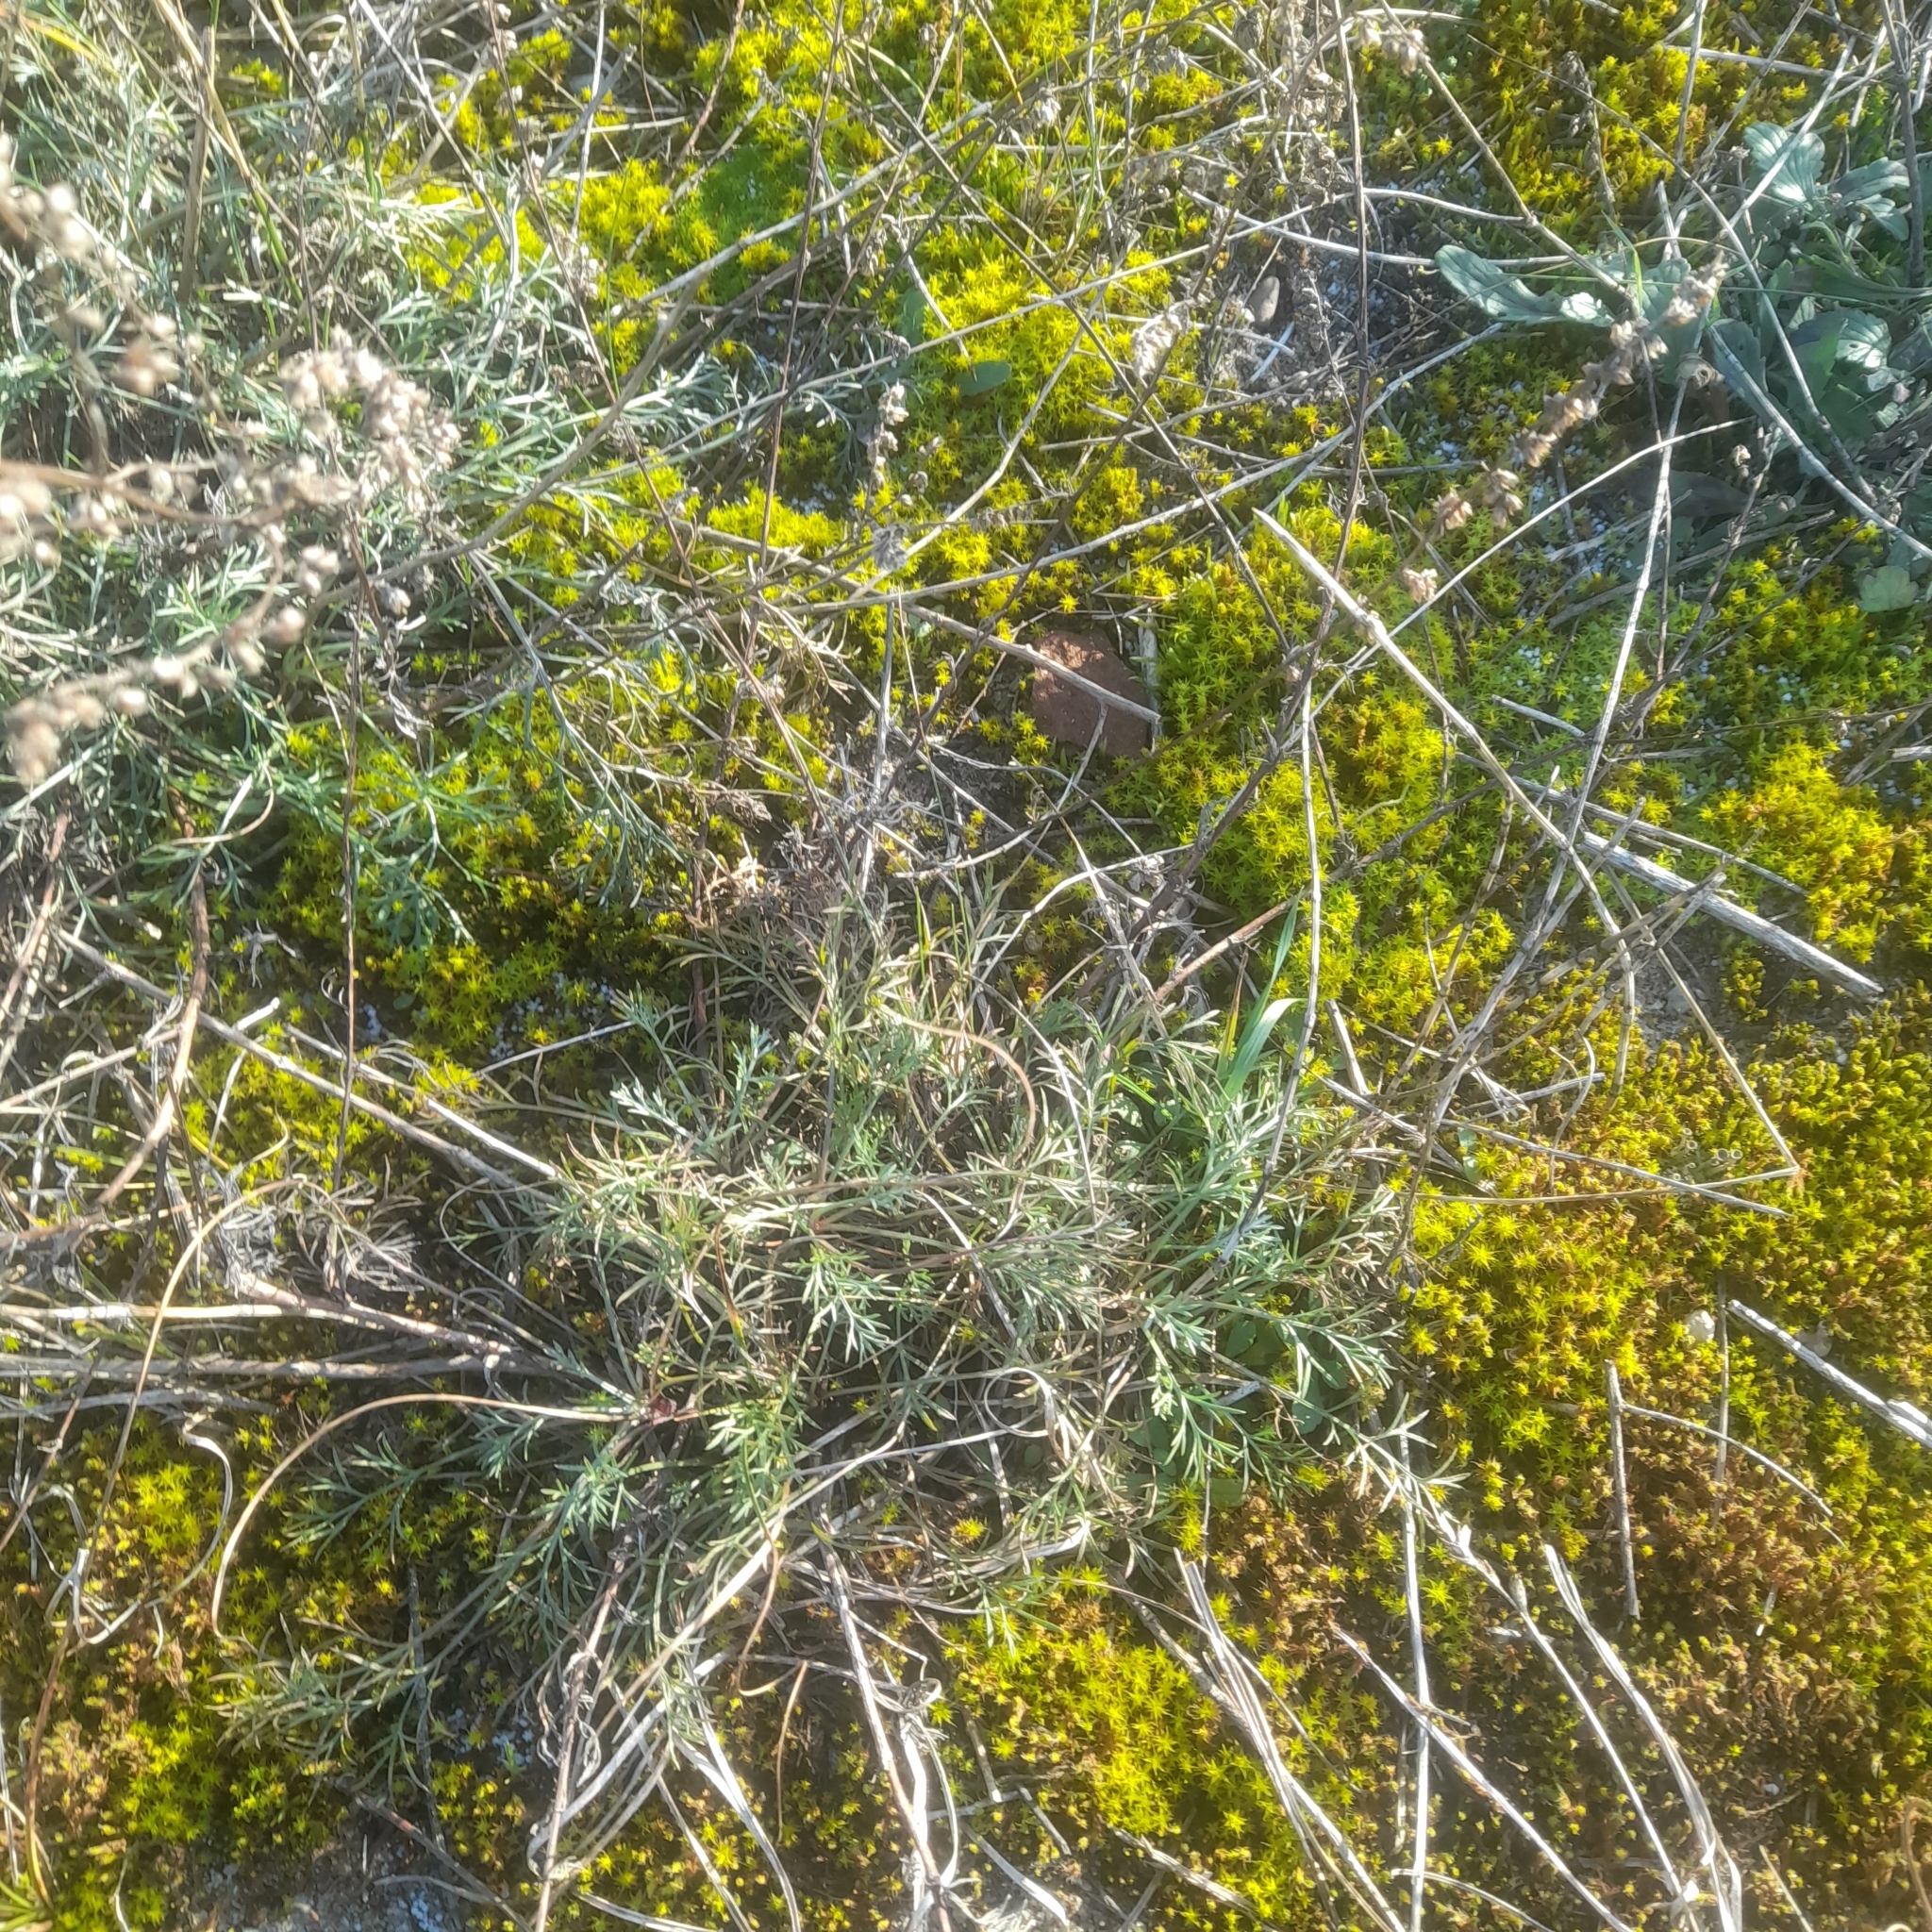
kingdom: Plantae
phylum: Tracheophyta
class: Magnoliopsida
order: Asterales
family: Asteraceae
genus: Artemisia
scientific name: Artemisia campestris
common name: Field wormwood
